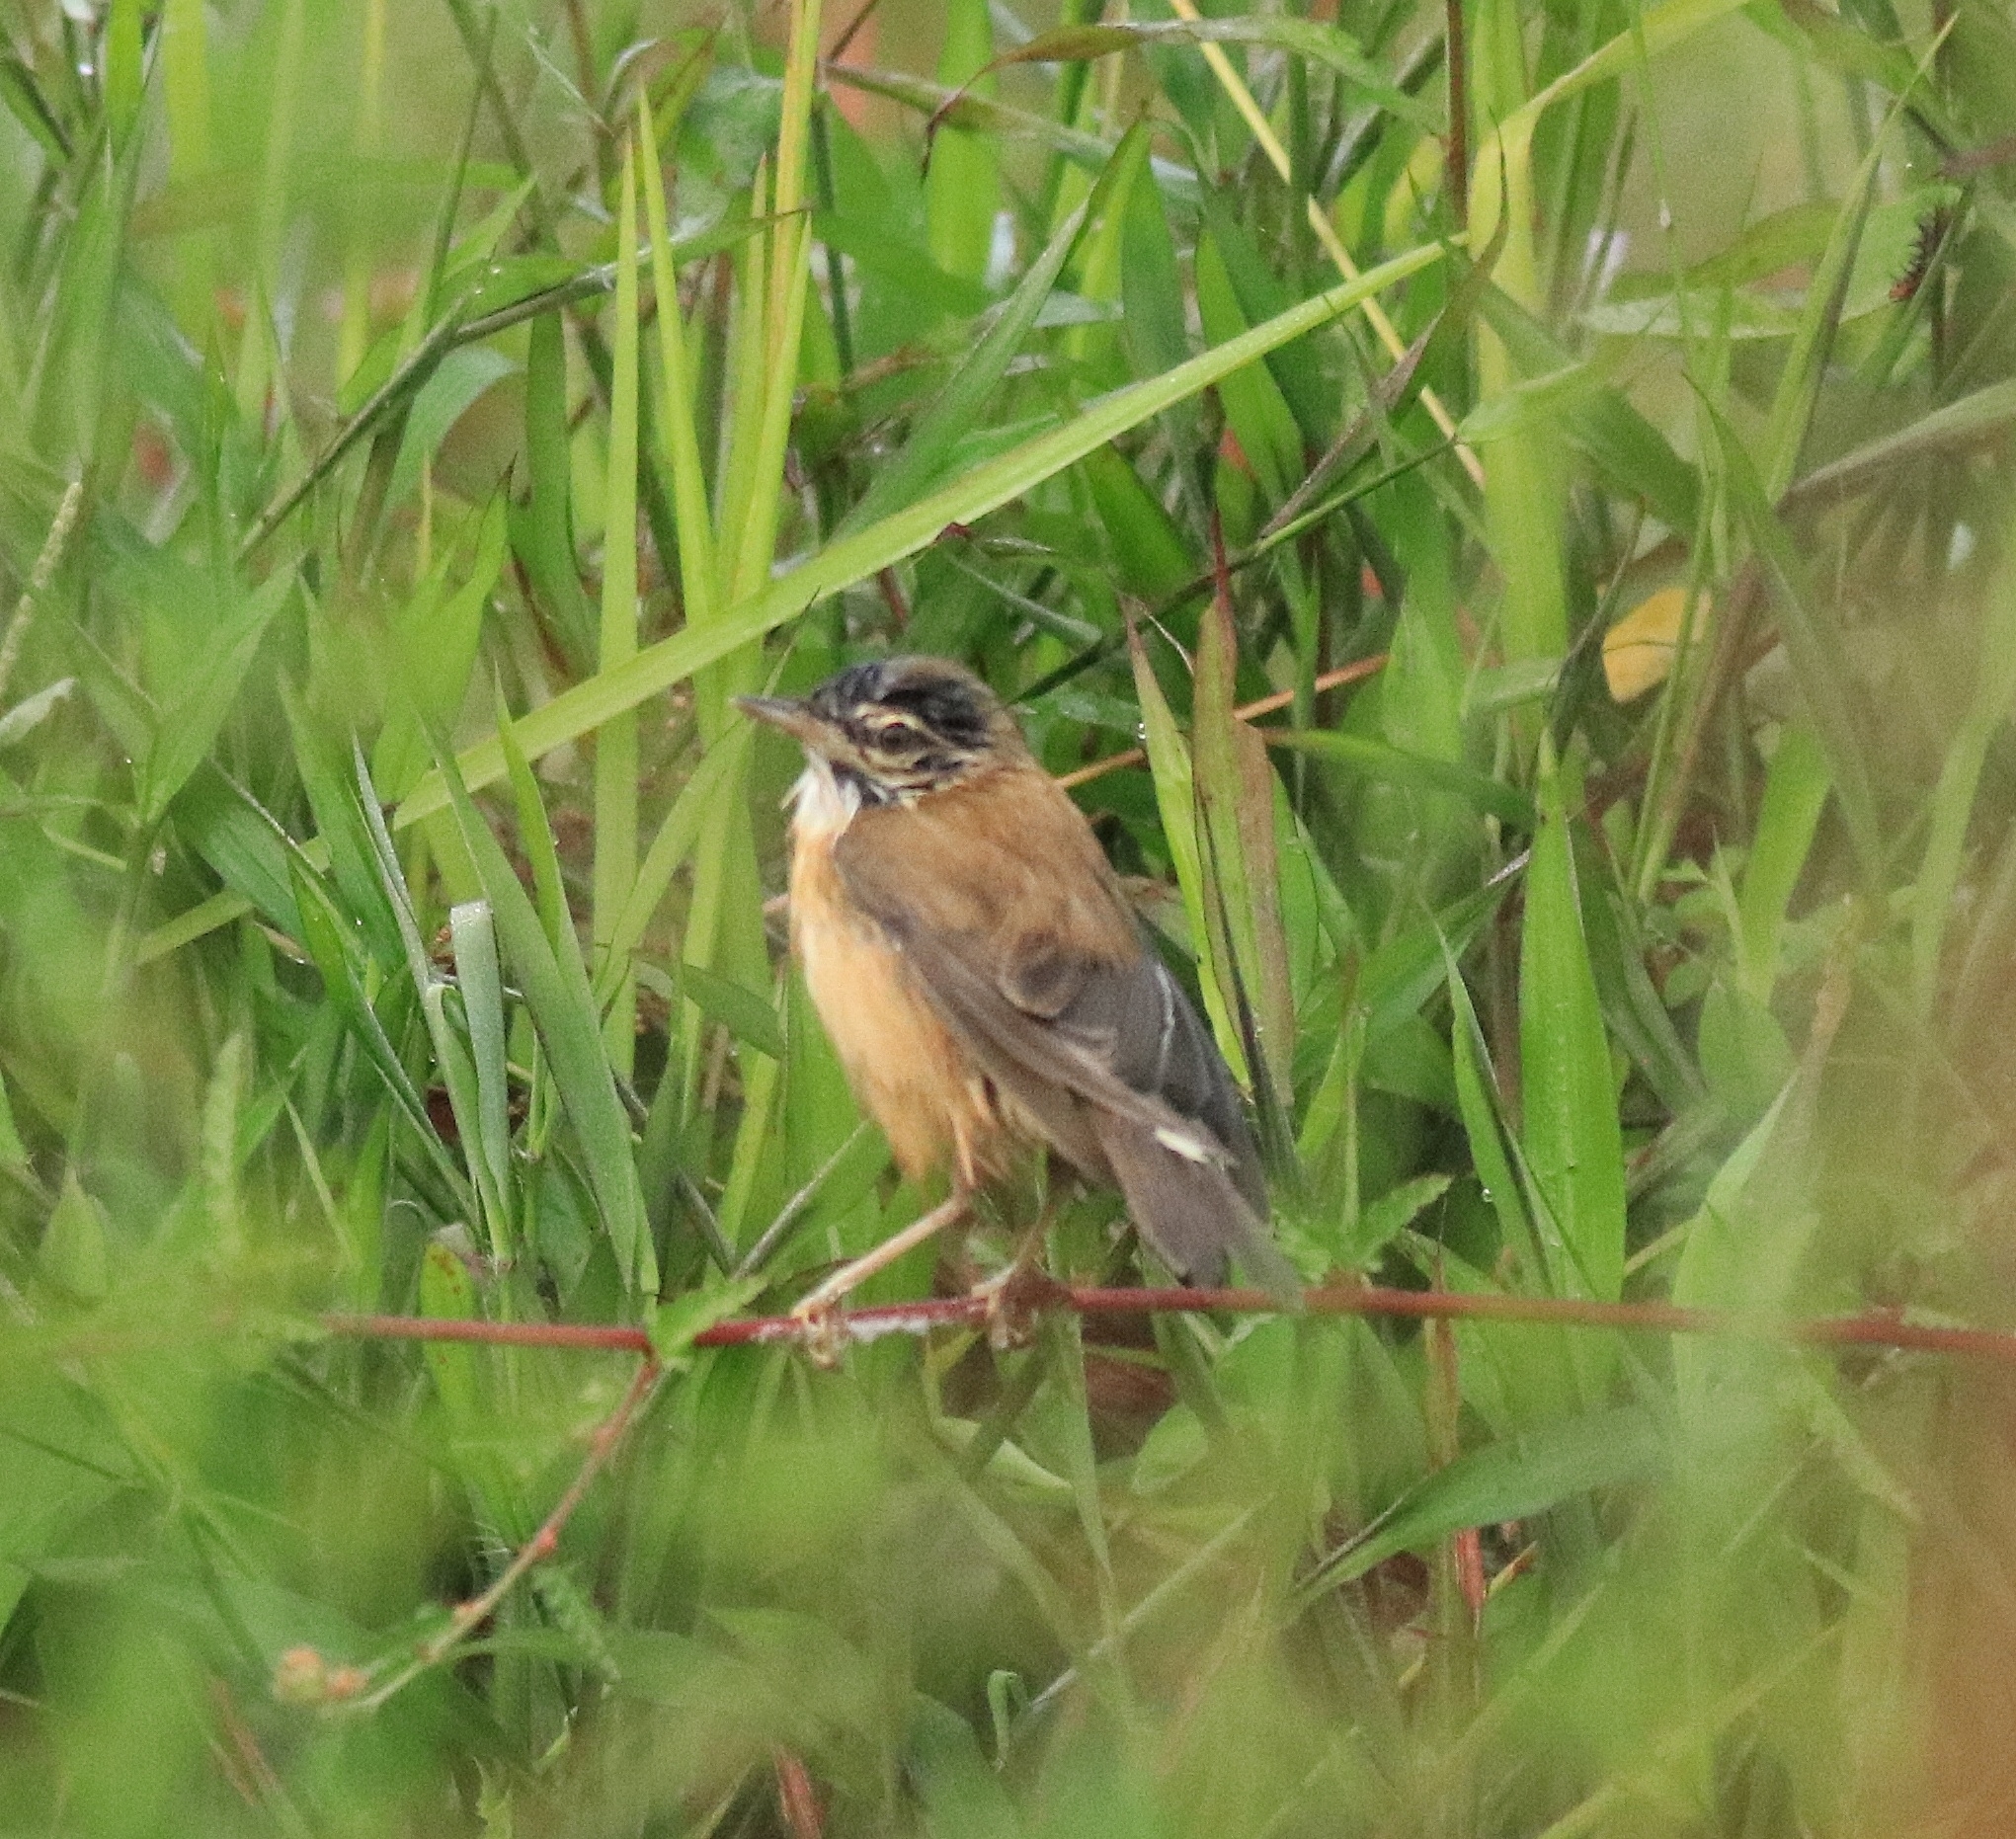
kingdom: Animalia
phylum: Chordata
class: Aves
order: Passeriformes
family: Acrocephalidae
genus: Acrocephalus
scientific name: Acrocephalus agricola
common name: Paddyfield warbler
